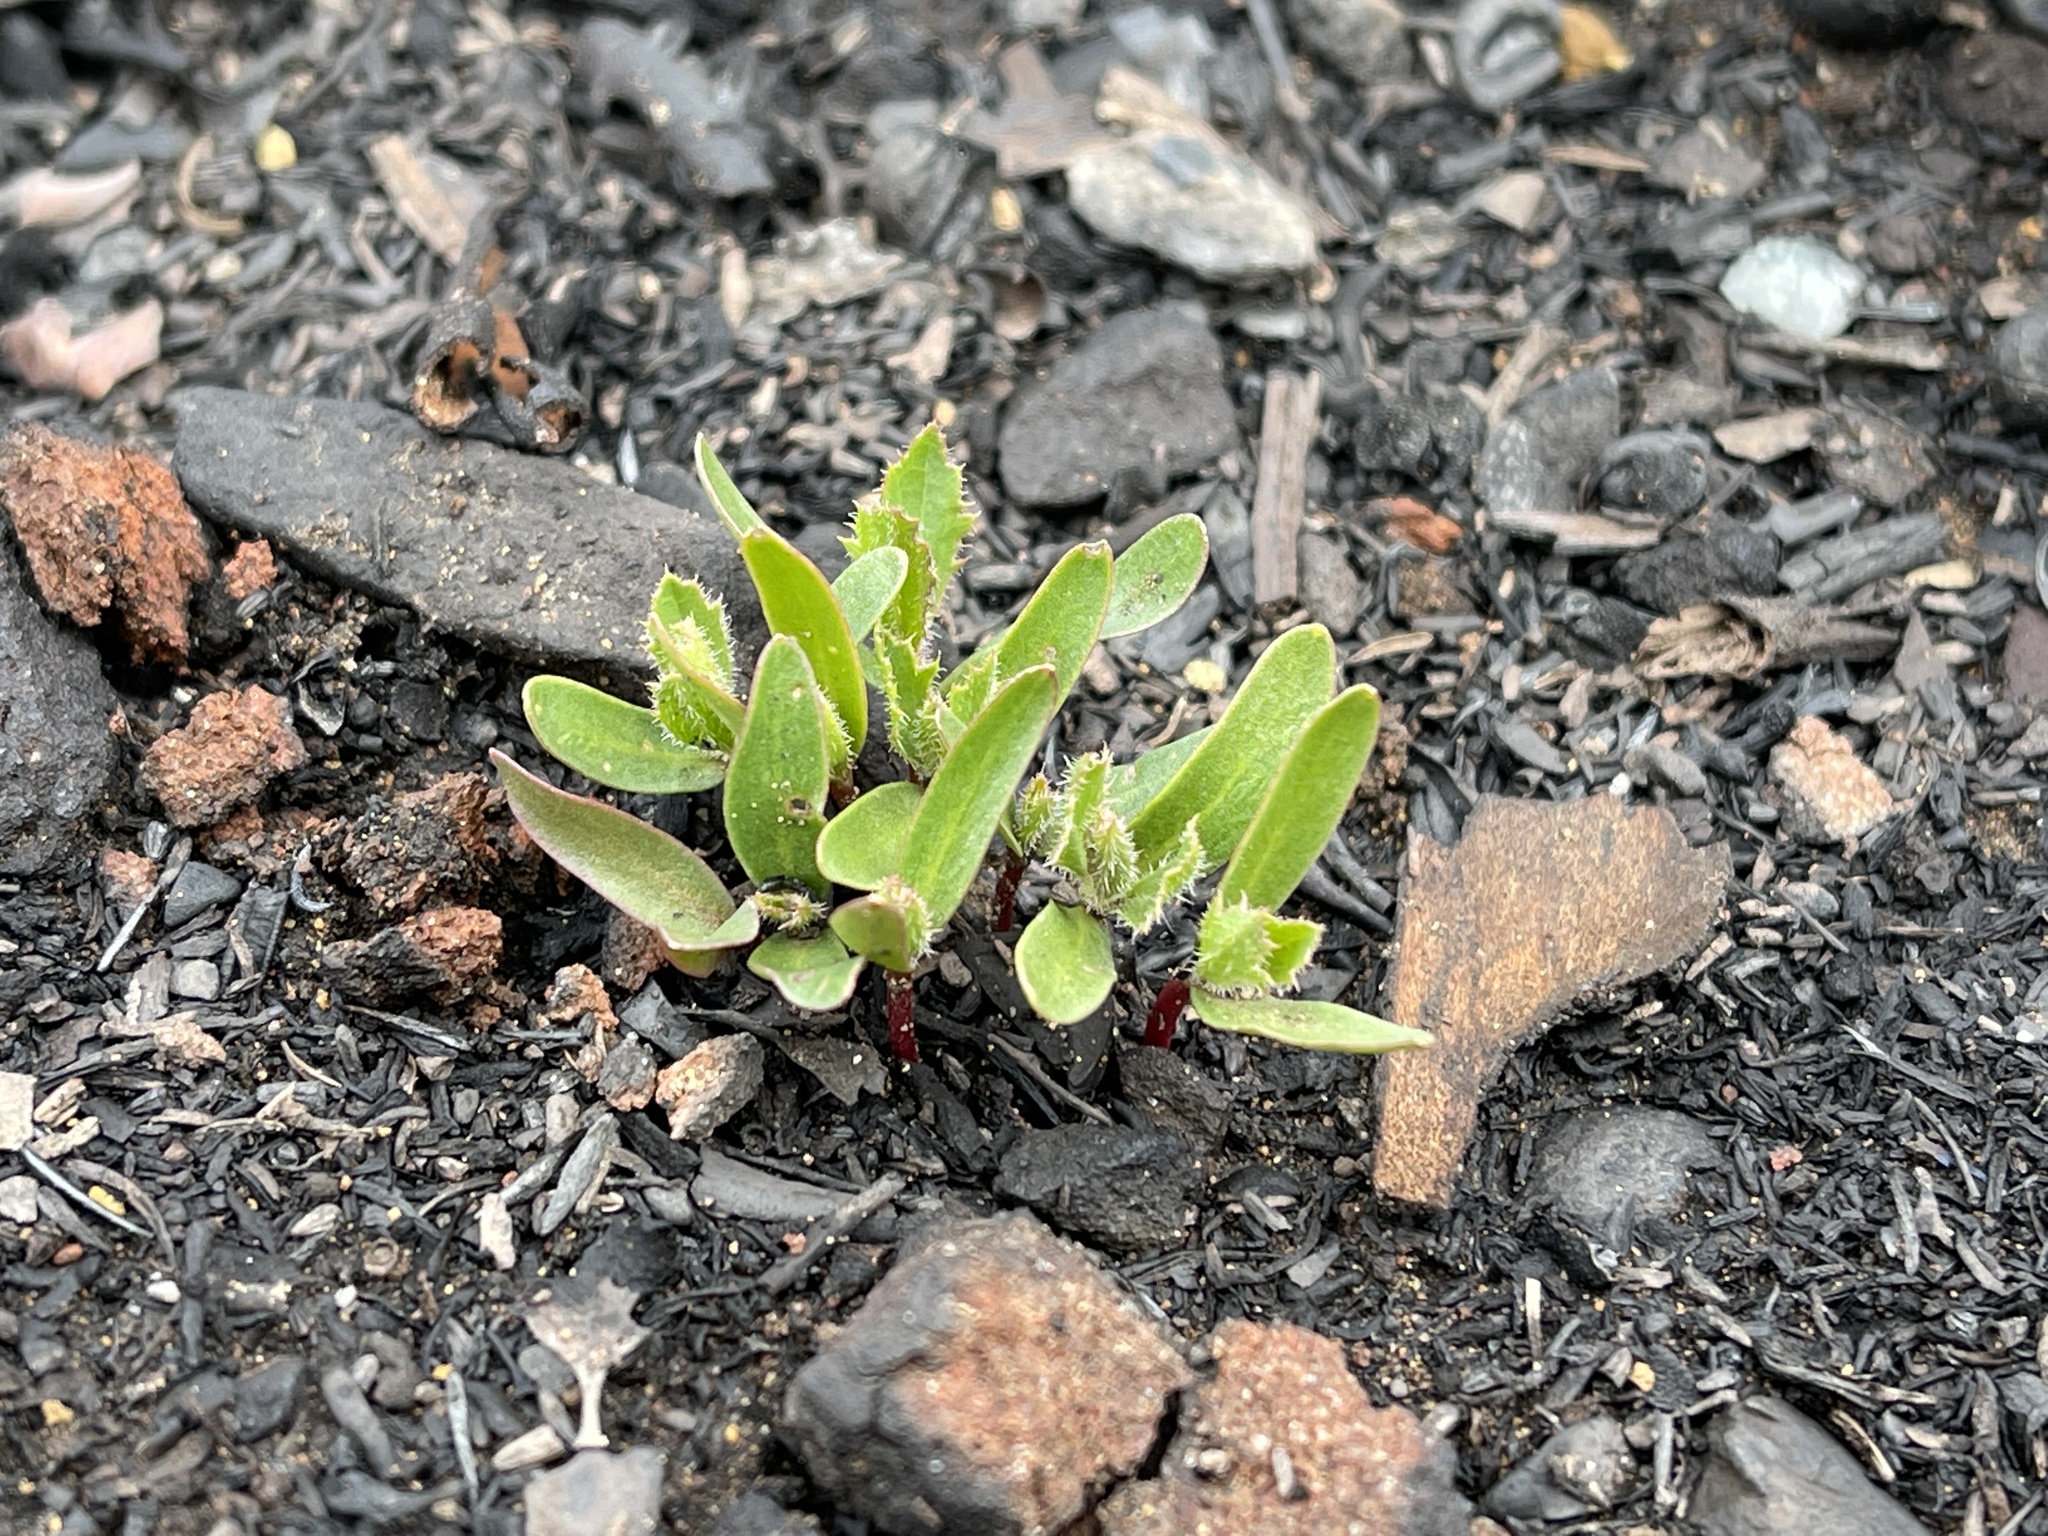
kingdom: Plantae
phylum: Tracheophyta
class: Magnoliopsida
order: Ericales
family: Ericaceae
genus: Arbutus
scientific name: Arbutus menziesii
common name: Pacific madrone
